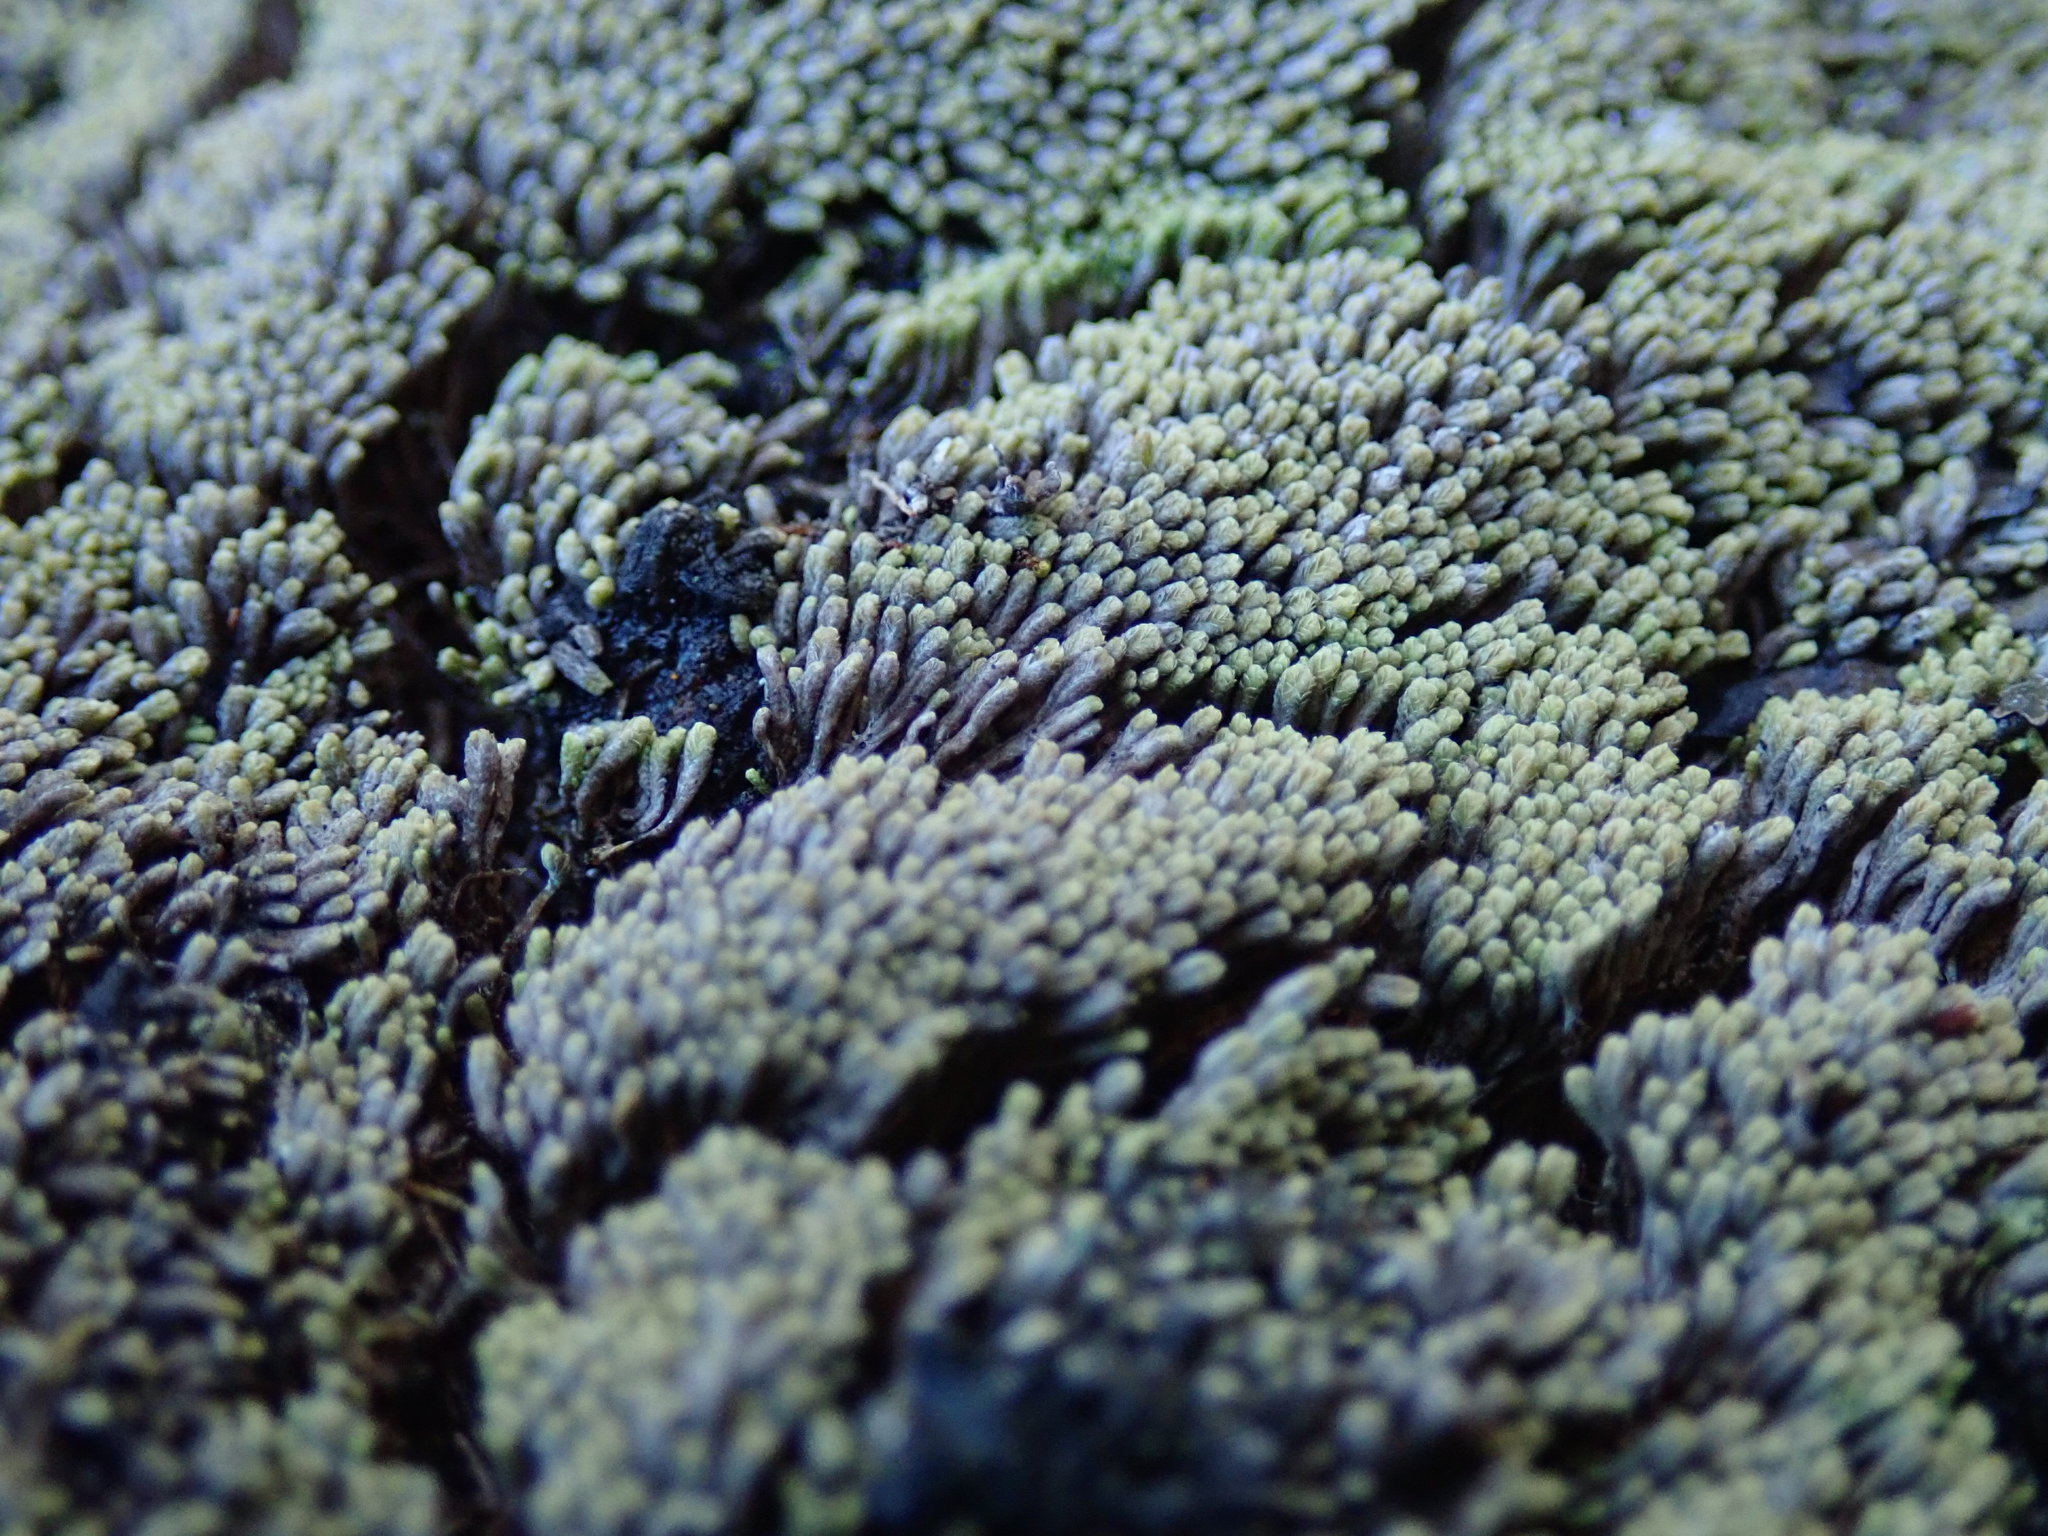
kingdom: Plantae
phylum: Marchantiophyta
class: Jungermanniopsida
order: Jungermanniales
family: Gymnomitriaceae
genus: Gymnomitrion
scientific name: Gymnomitrion obtusum
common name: White frostwort
